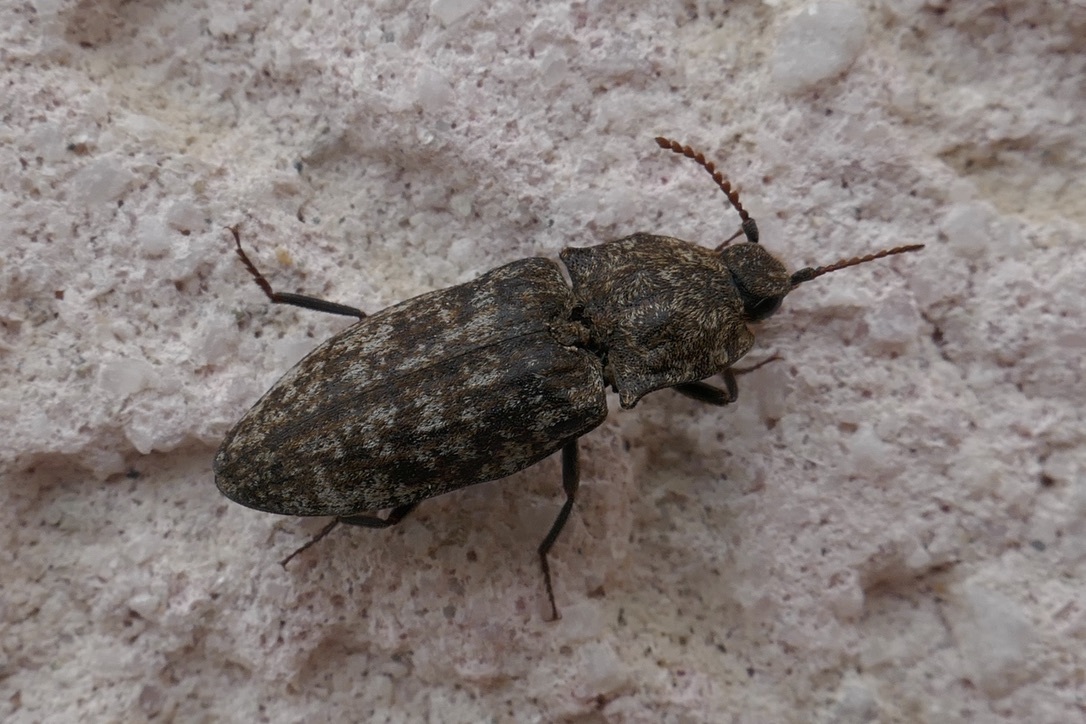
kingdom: Animalia
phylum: Arthropoda
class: Insecta
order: Coleoptera
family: Elateridae
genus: Agrypnus
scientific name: Agrypnus murinus
